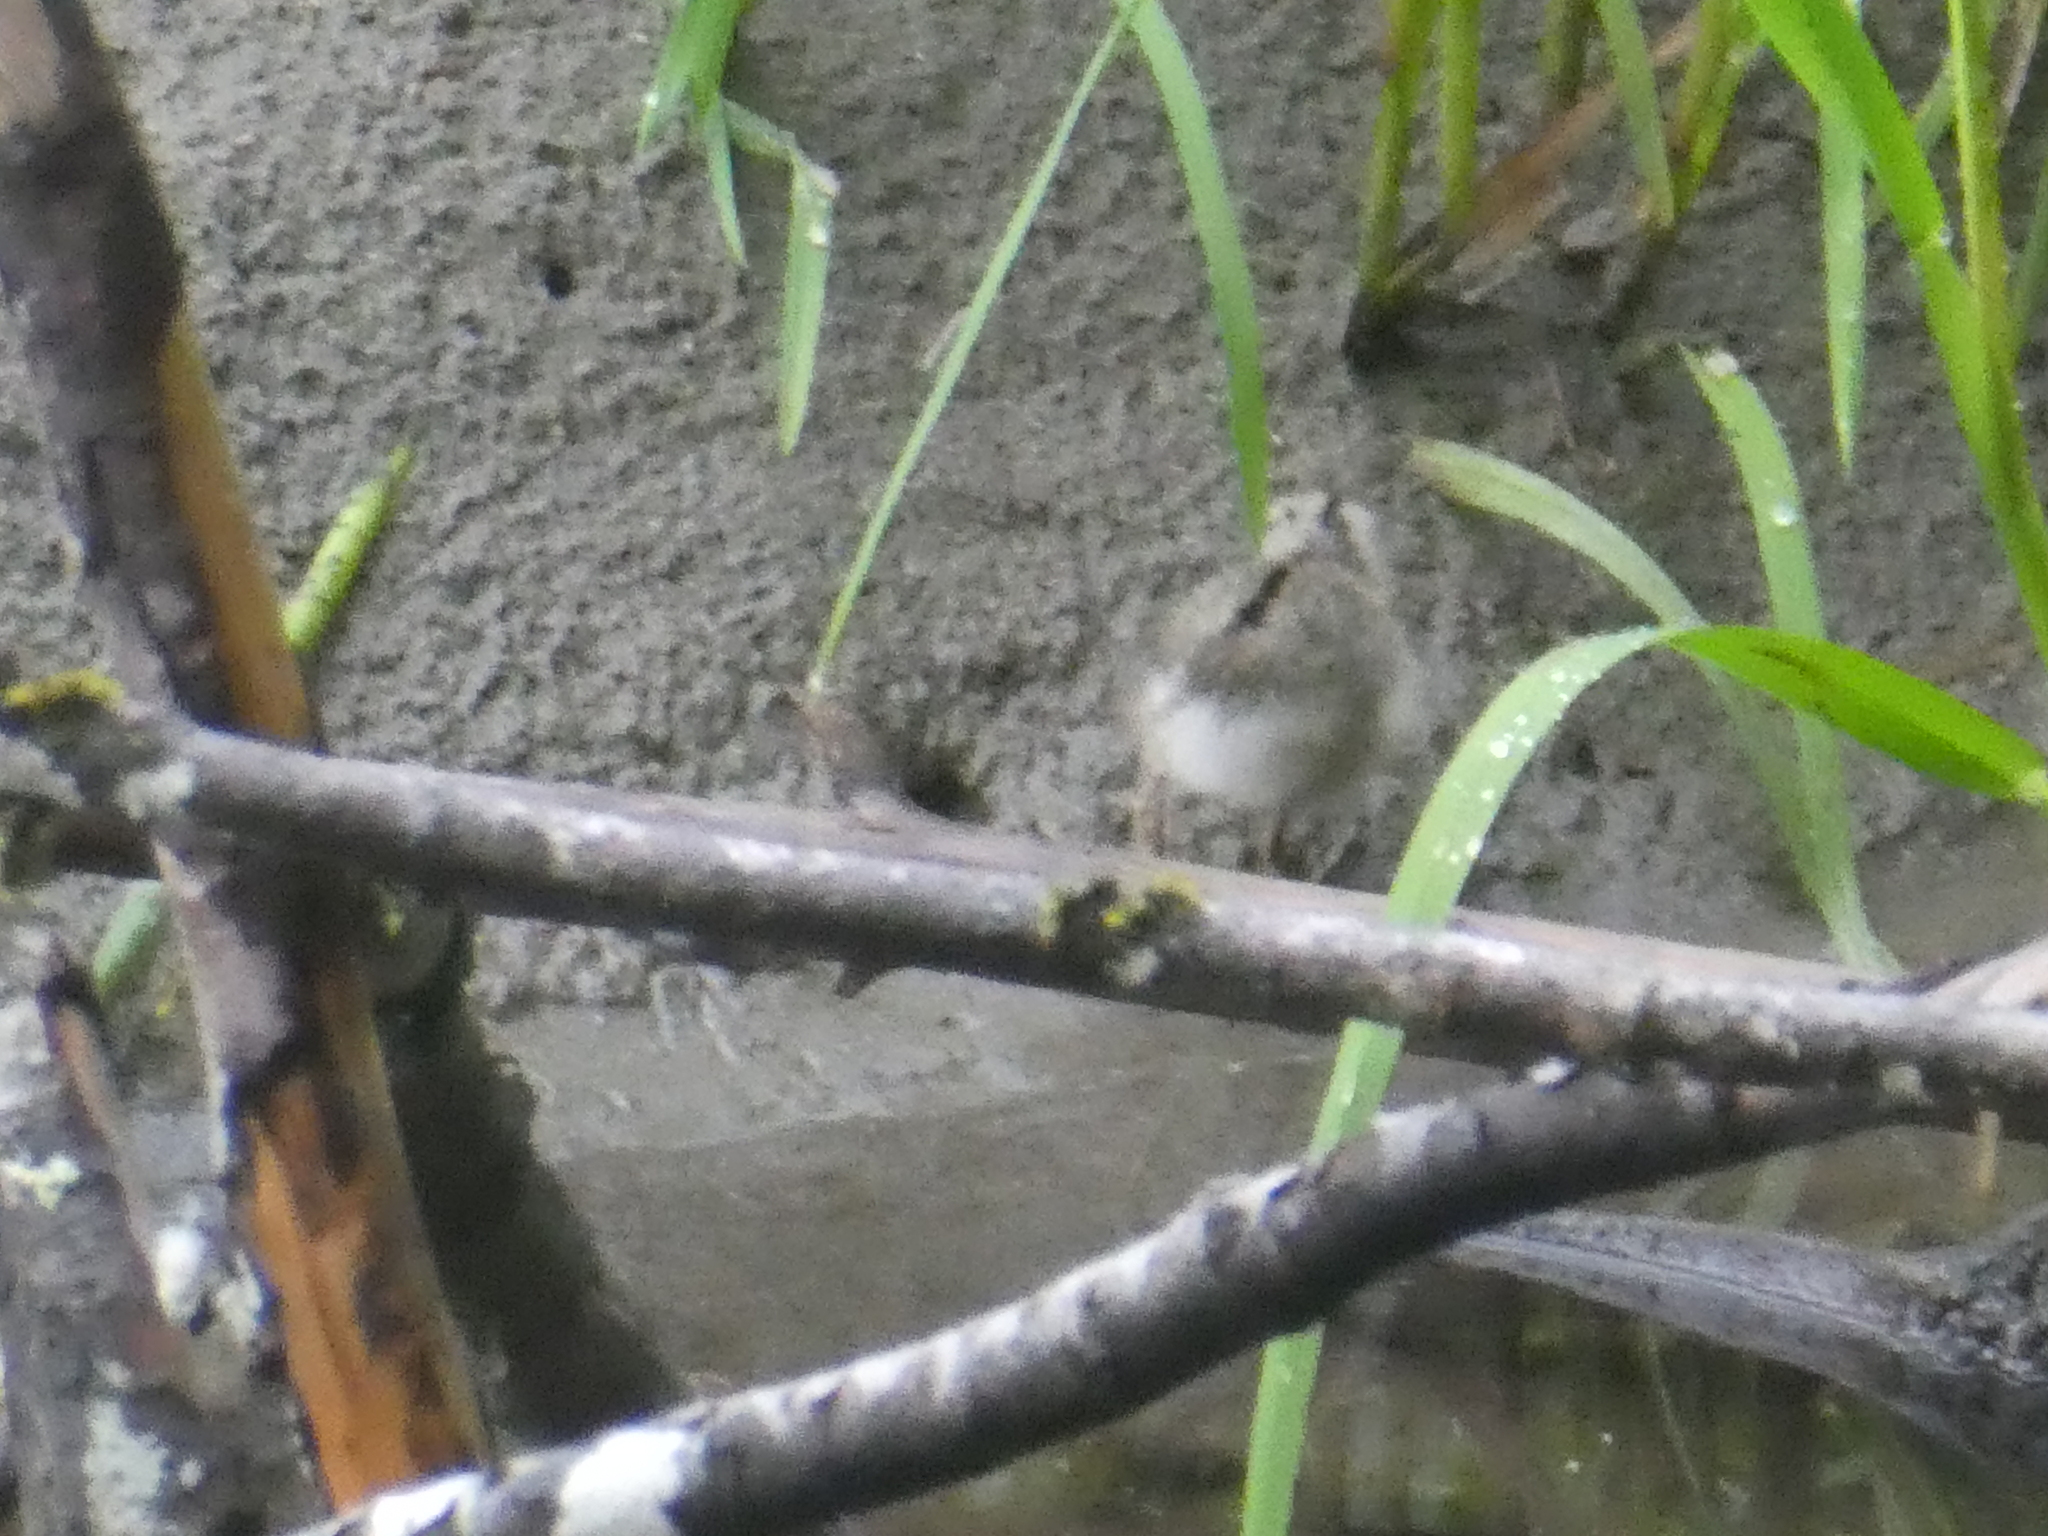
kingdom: Animalia
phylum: Chordata
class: Aves
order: Charadriiformes
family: Scolopacidae
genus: Actitis
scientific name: Actitis macularius
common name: Spotted sandpiper
